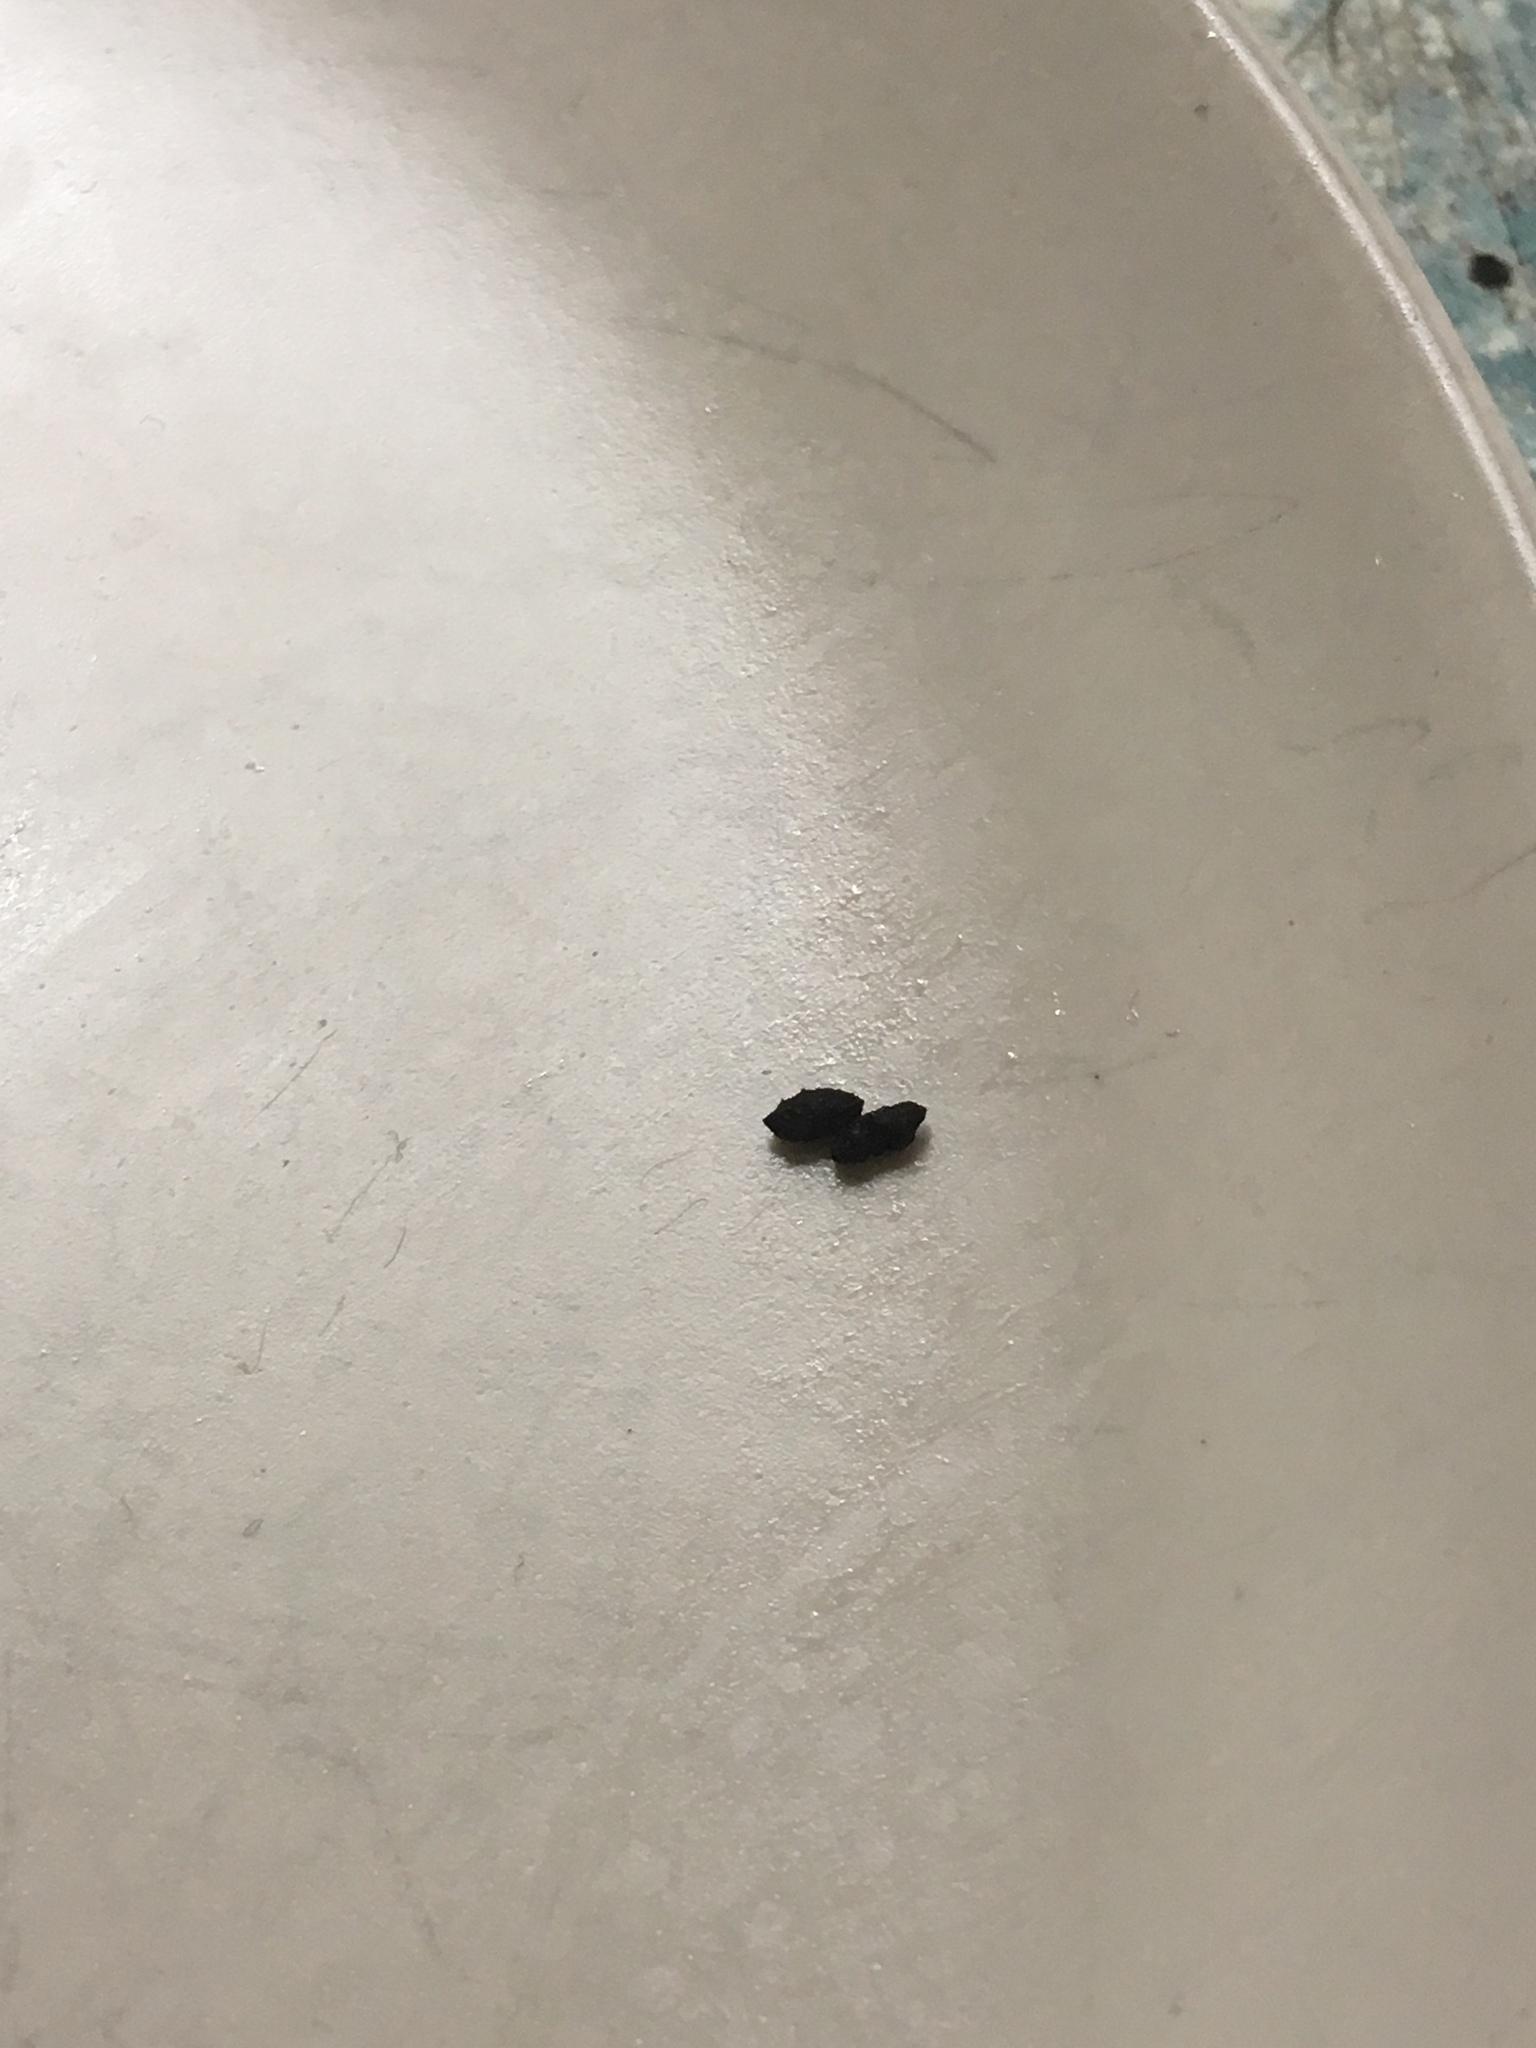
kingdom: Animalia
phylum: Chordata
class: Mammalia
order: Rodentia
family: Muridae
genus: Mus
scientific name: Mus musculus
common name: House mouse
